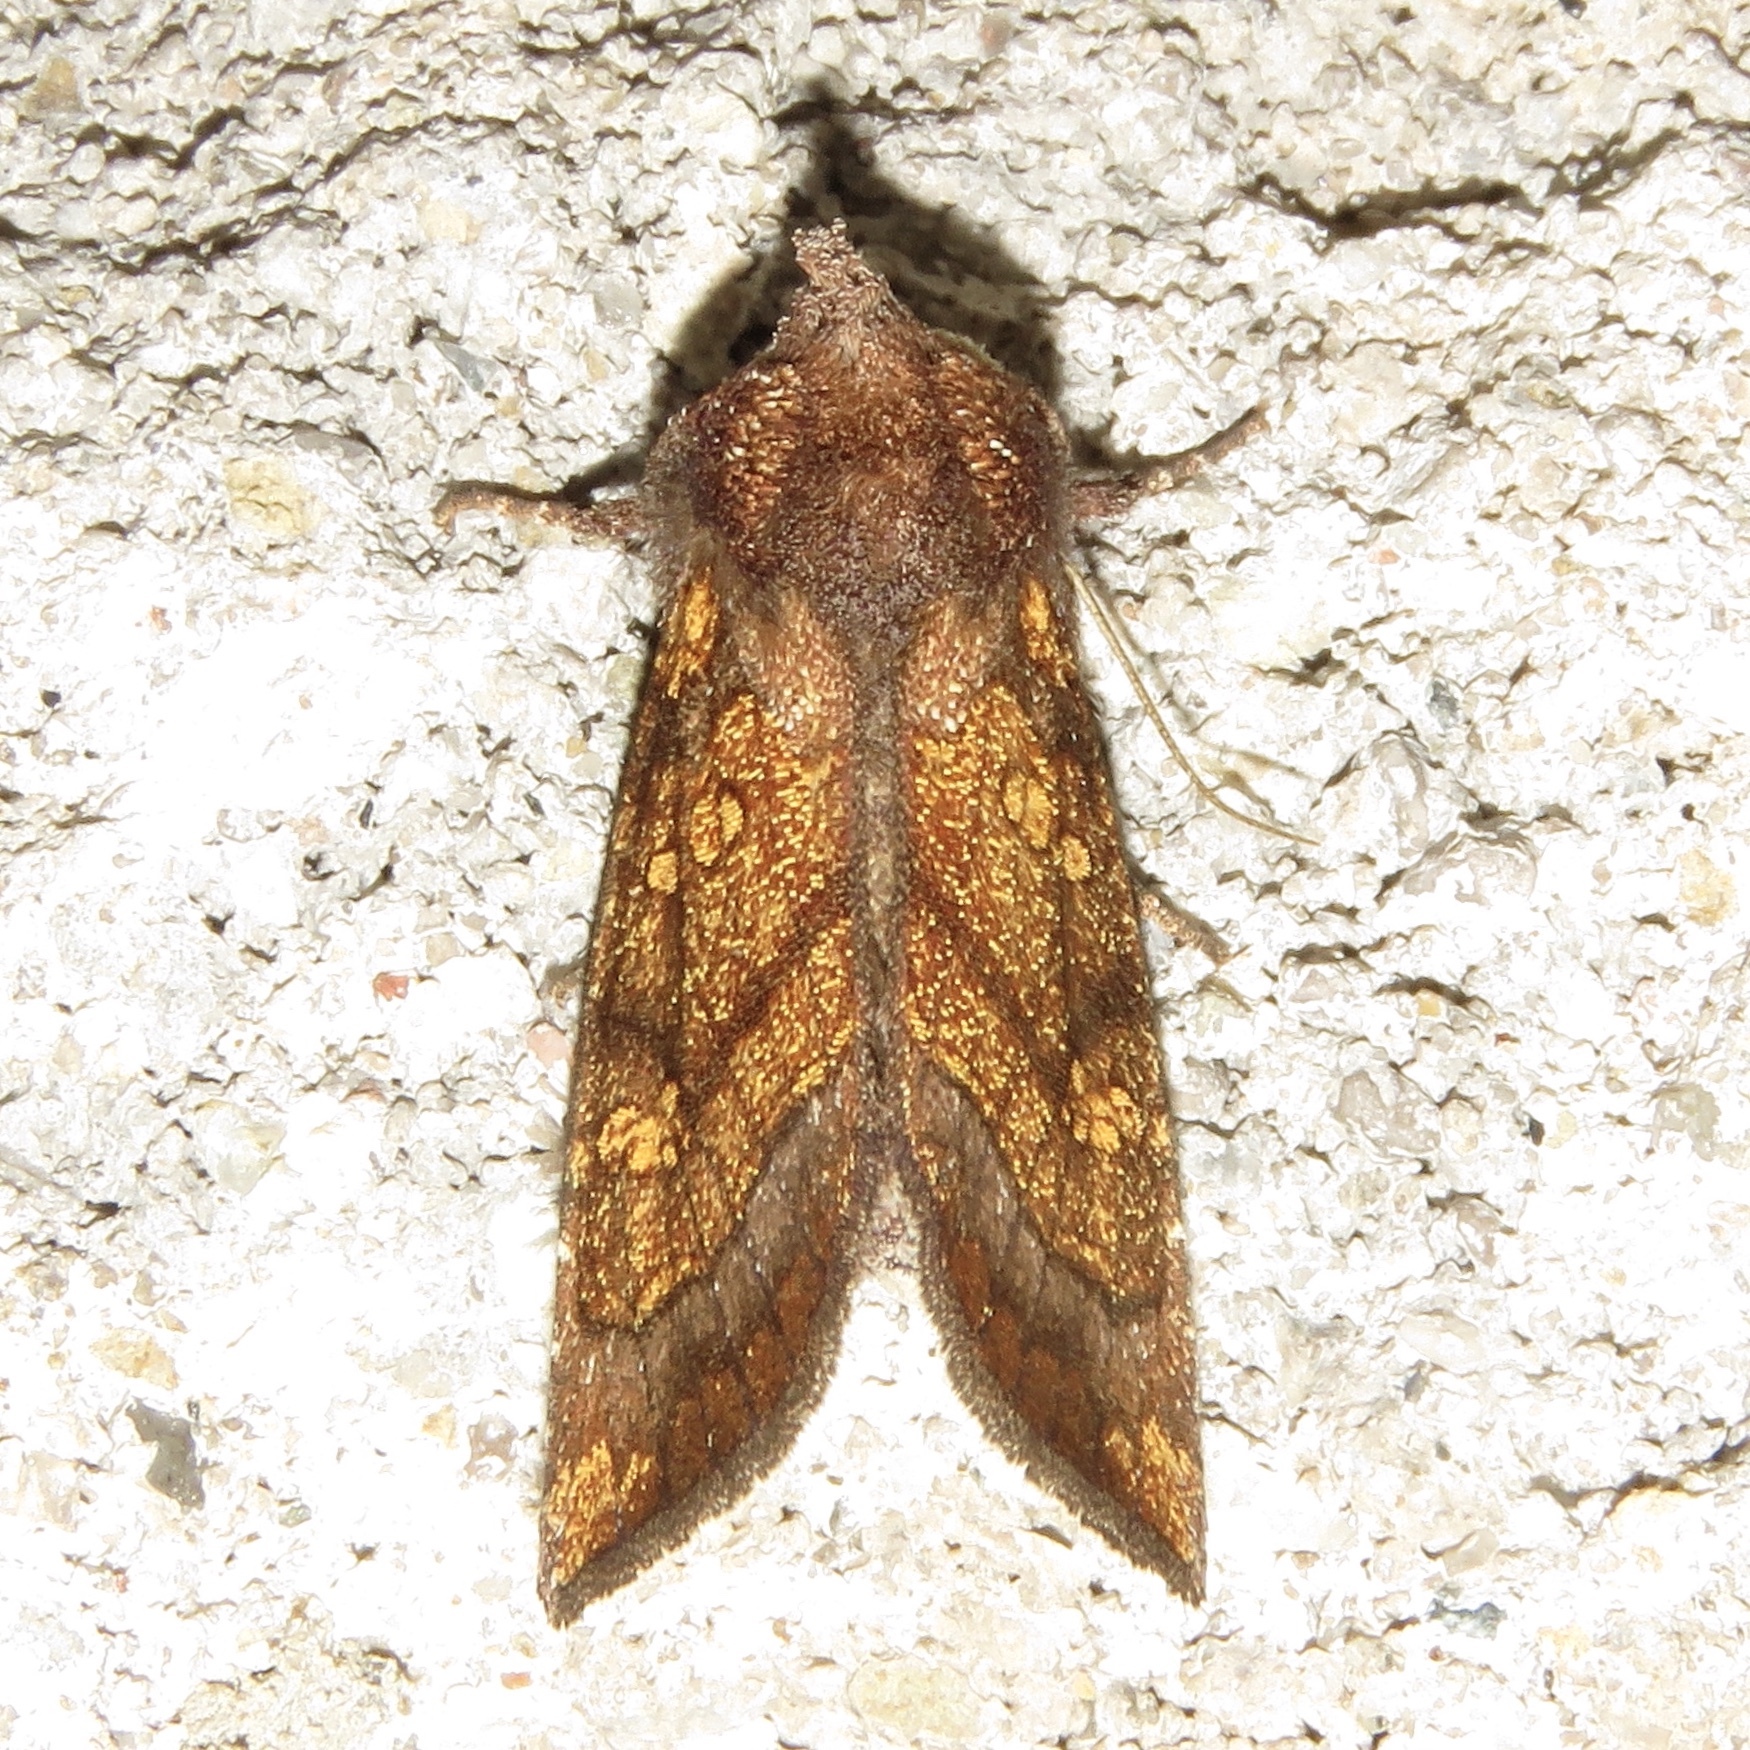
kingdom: Animalia
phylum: Arthropoda
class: Insecta
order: Lepidoptera
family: Noctuidae
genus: Papaipema
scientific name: Papaipema impecuniosa
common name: Aster borer moth
